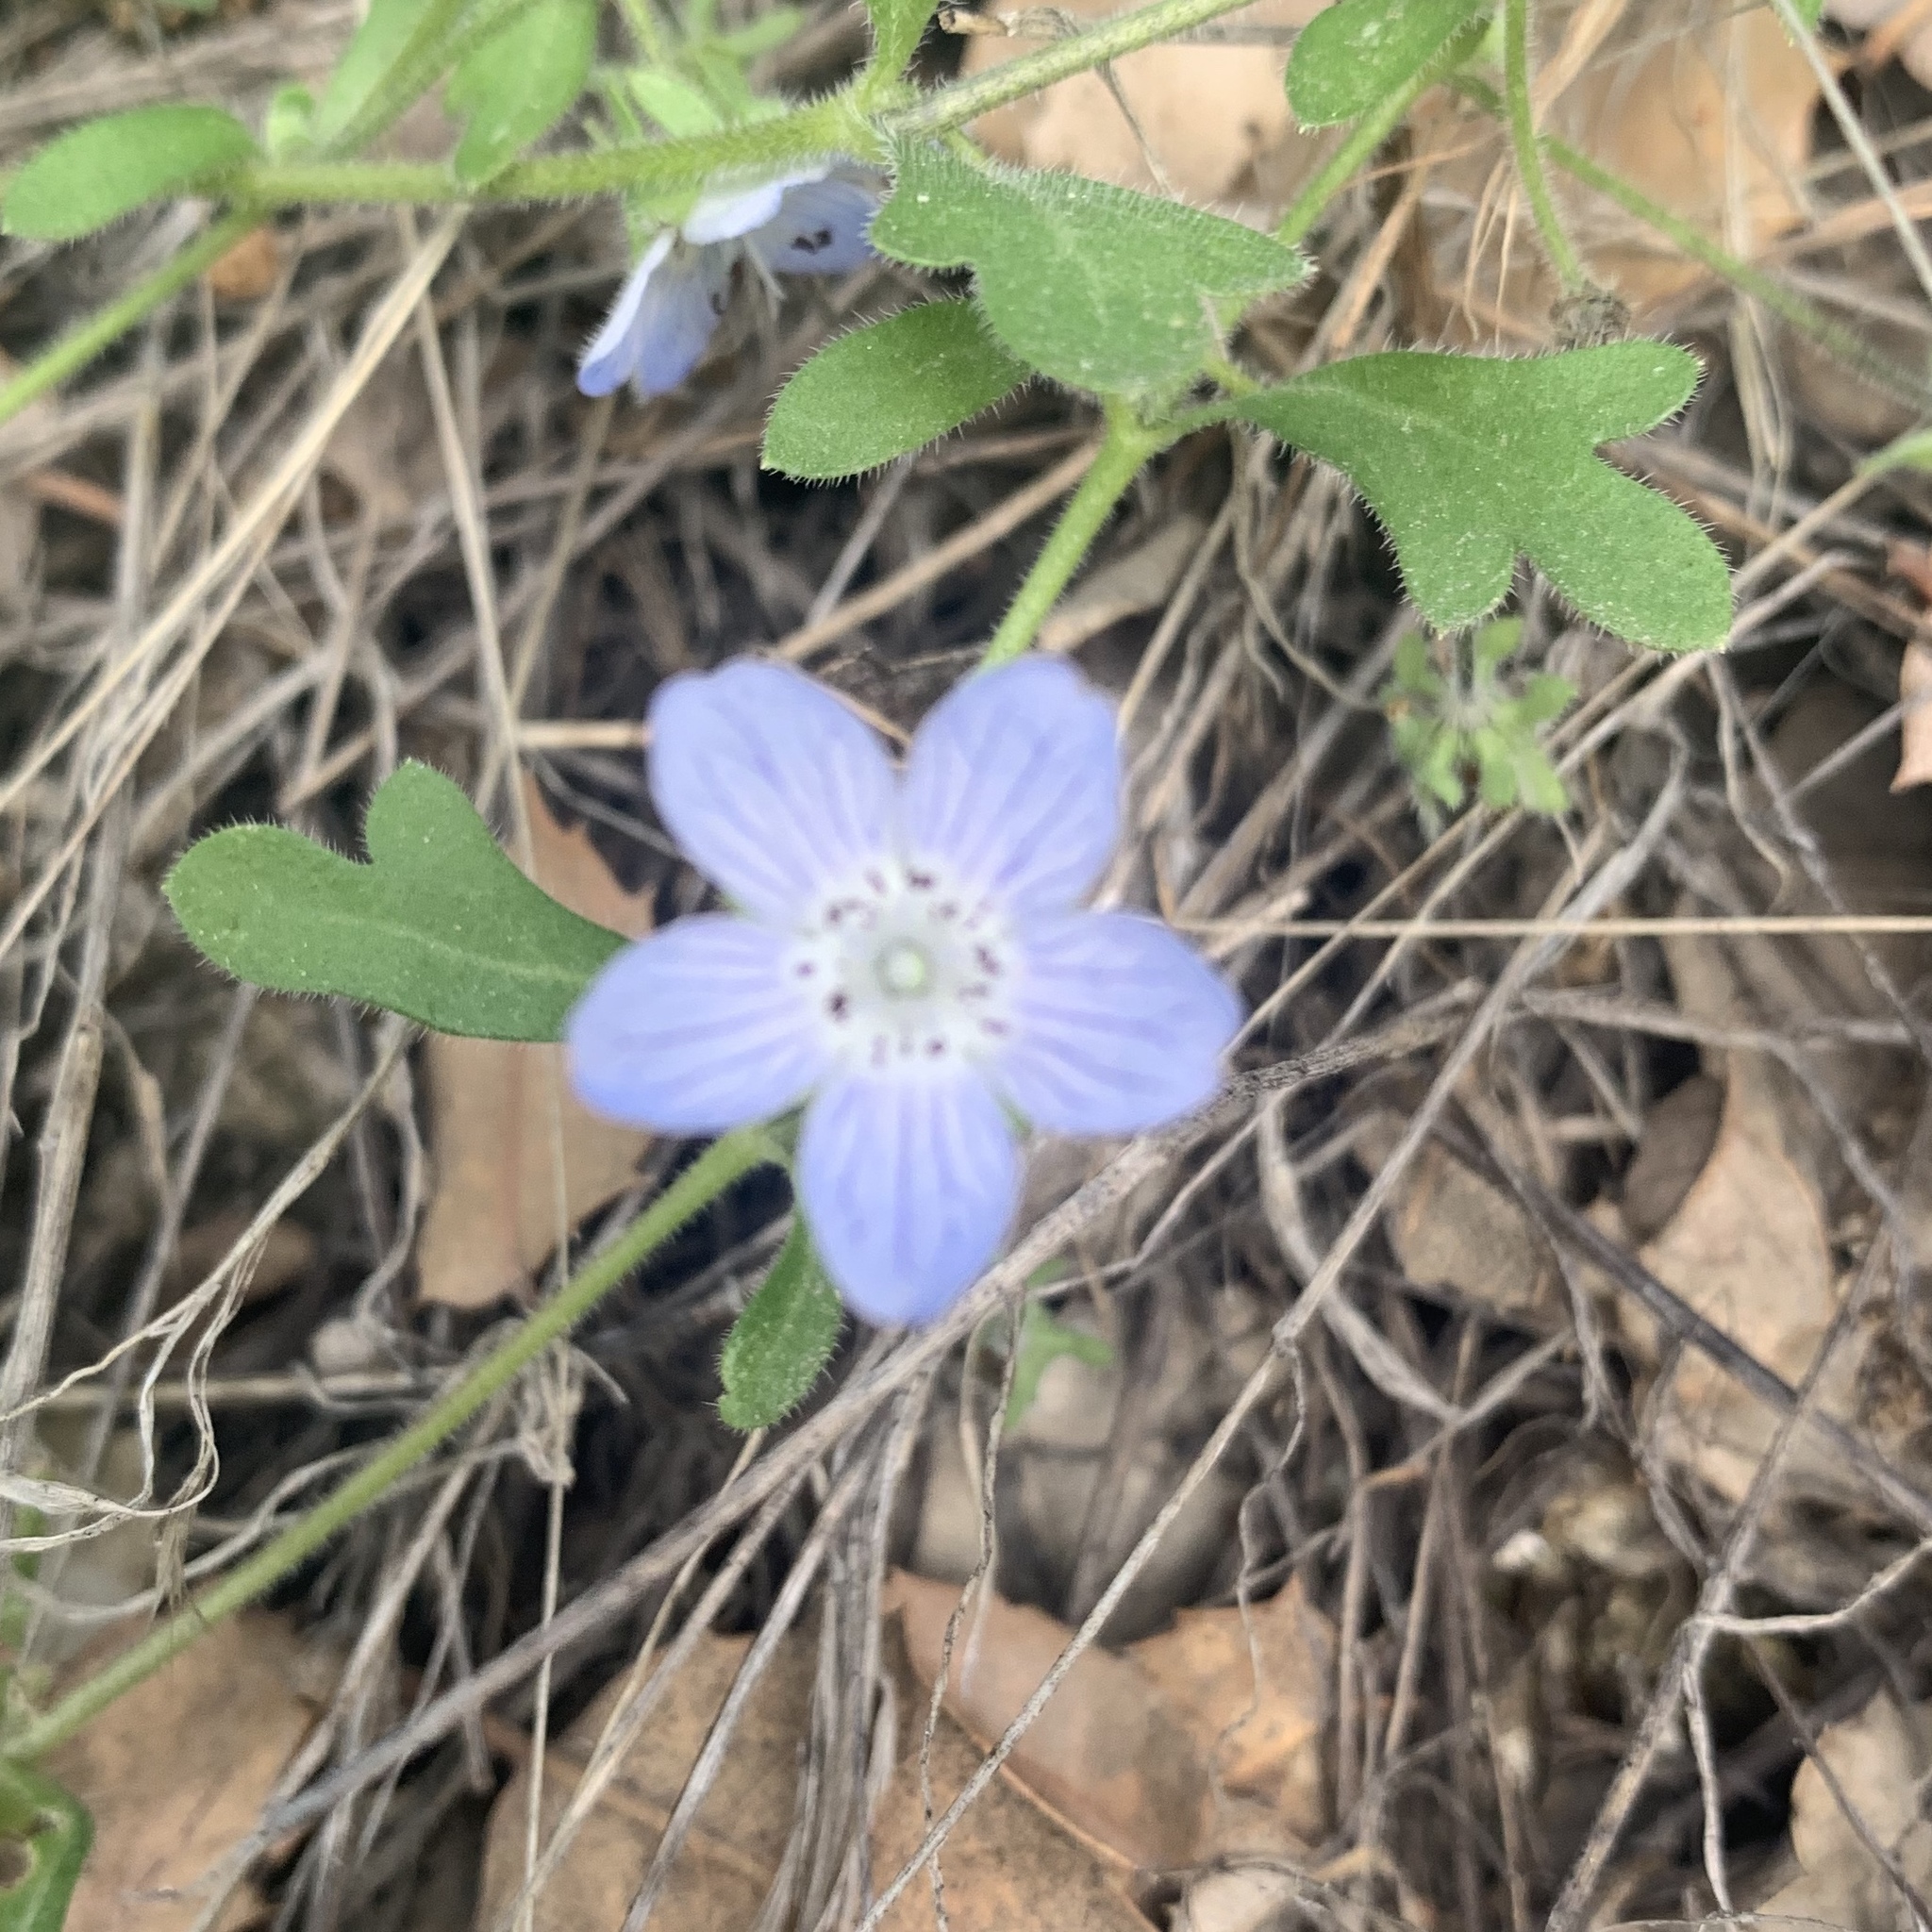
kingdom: Plantae
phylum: Tracheophyta
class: Magnoliopsida
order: Boraginales
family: Hydrophyllaceae
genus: Nemophila
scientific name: Nemophila menziesii
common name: Baby's-blue-eyes
